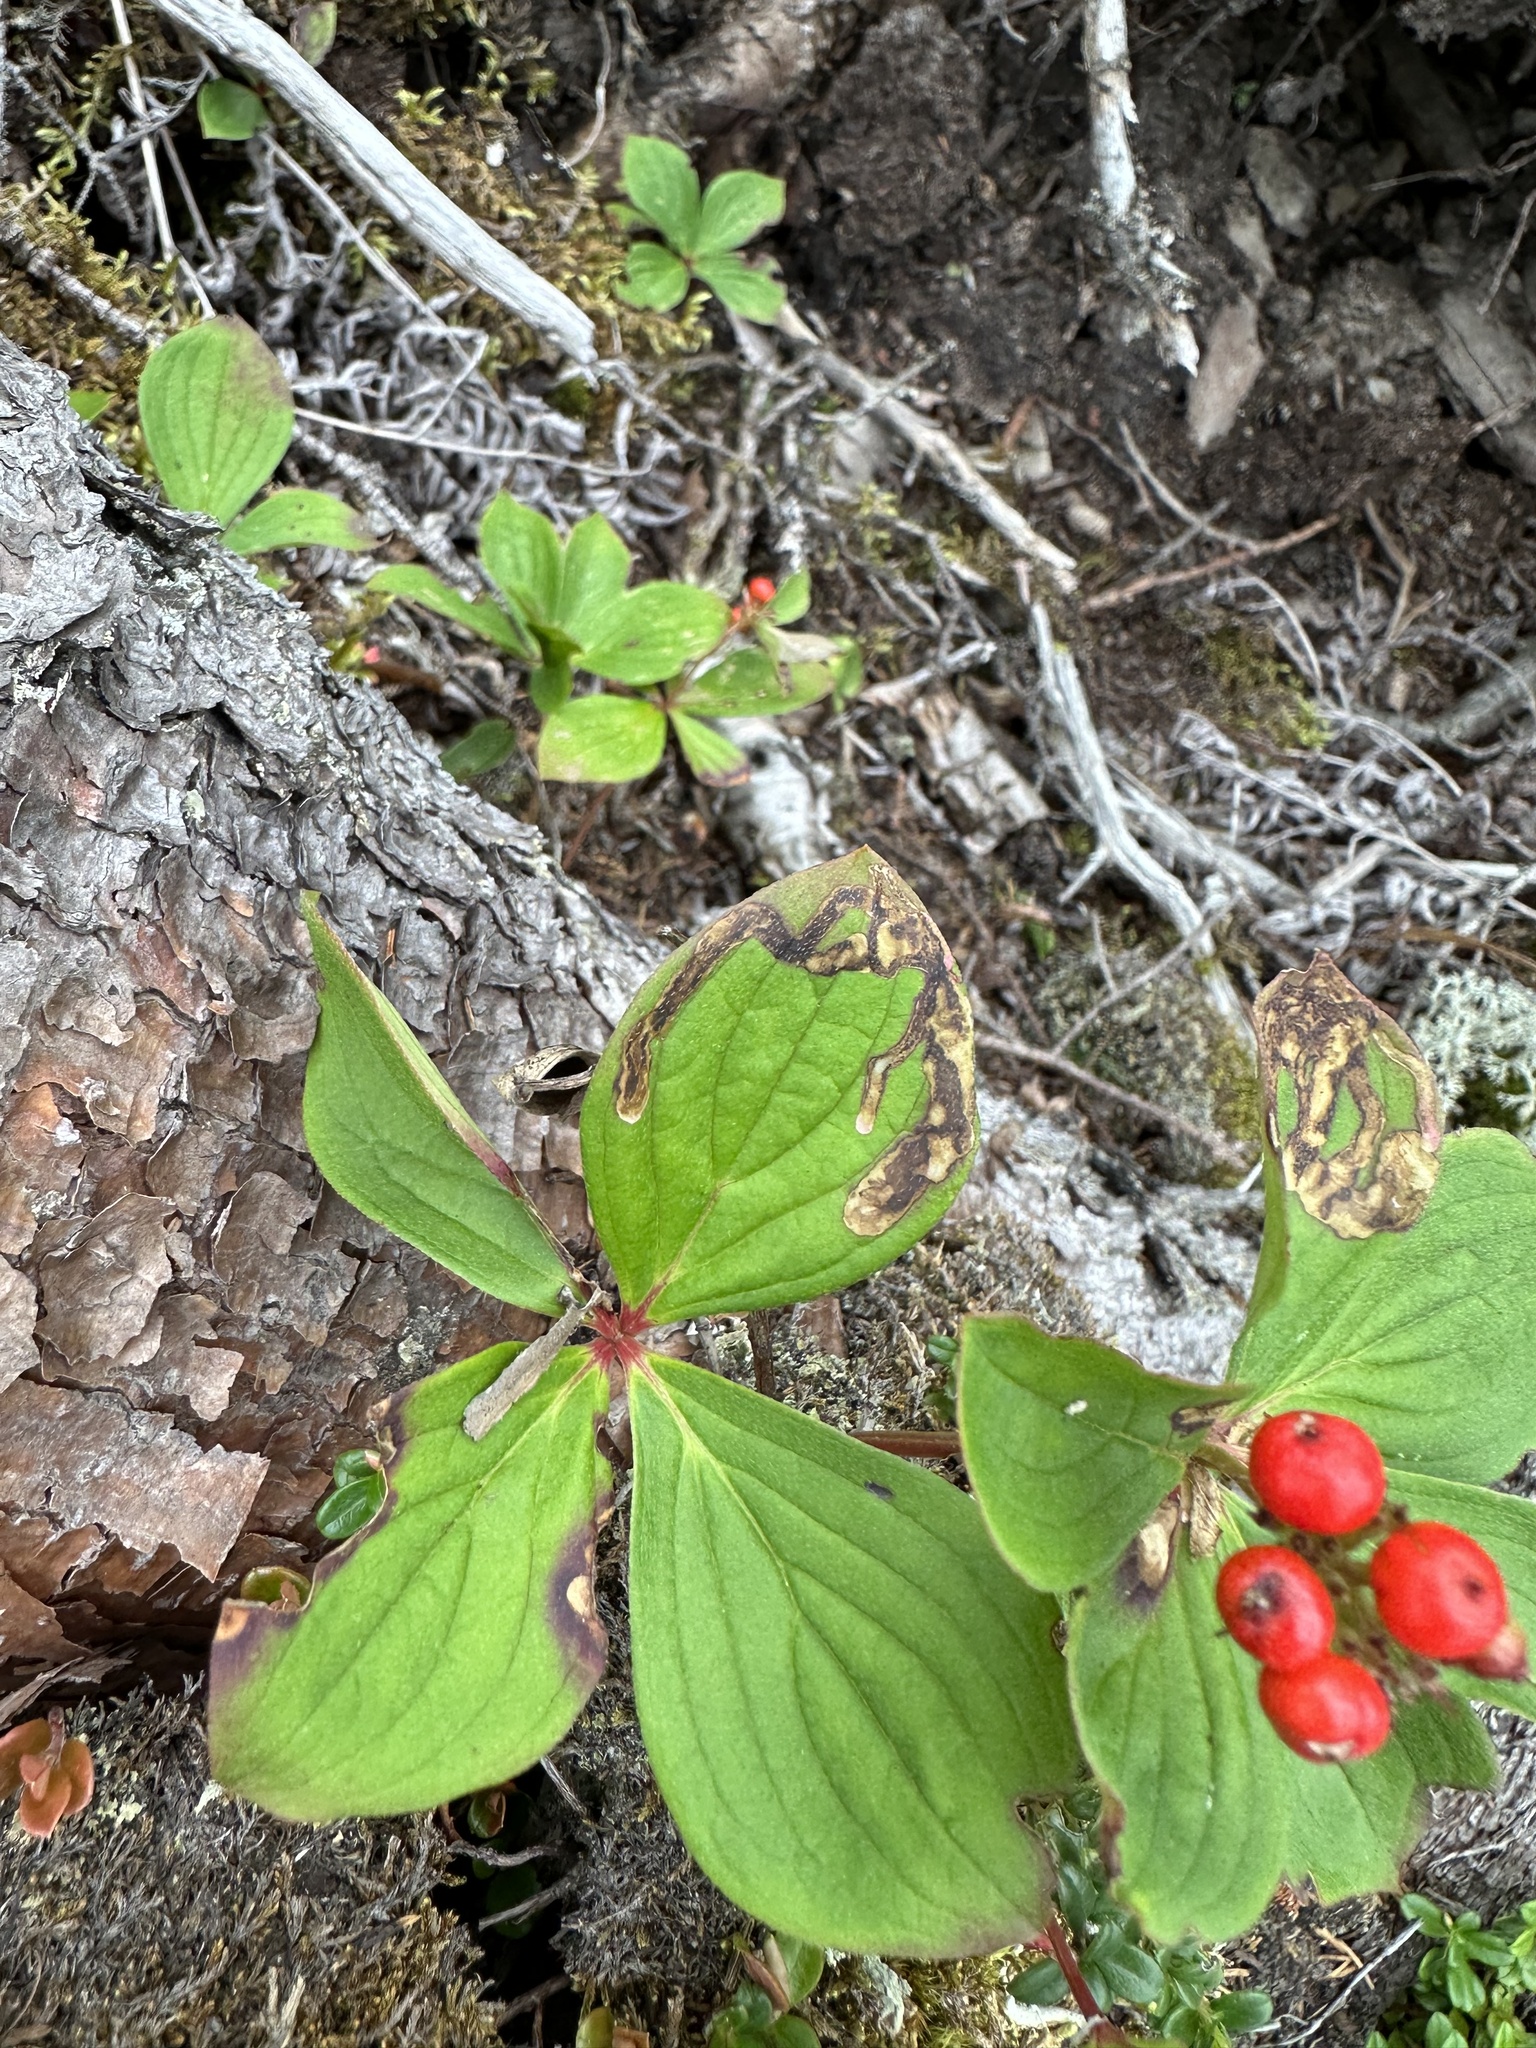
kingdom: Animalia
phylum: Arthropoda
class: Insecta
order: Diptera
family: Agromyzidae
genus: Phytomyza
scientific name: Phytomyza agromyzina
